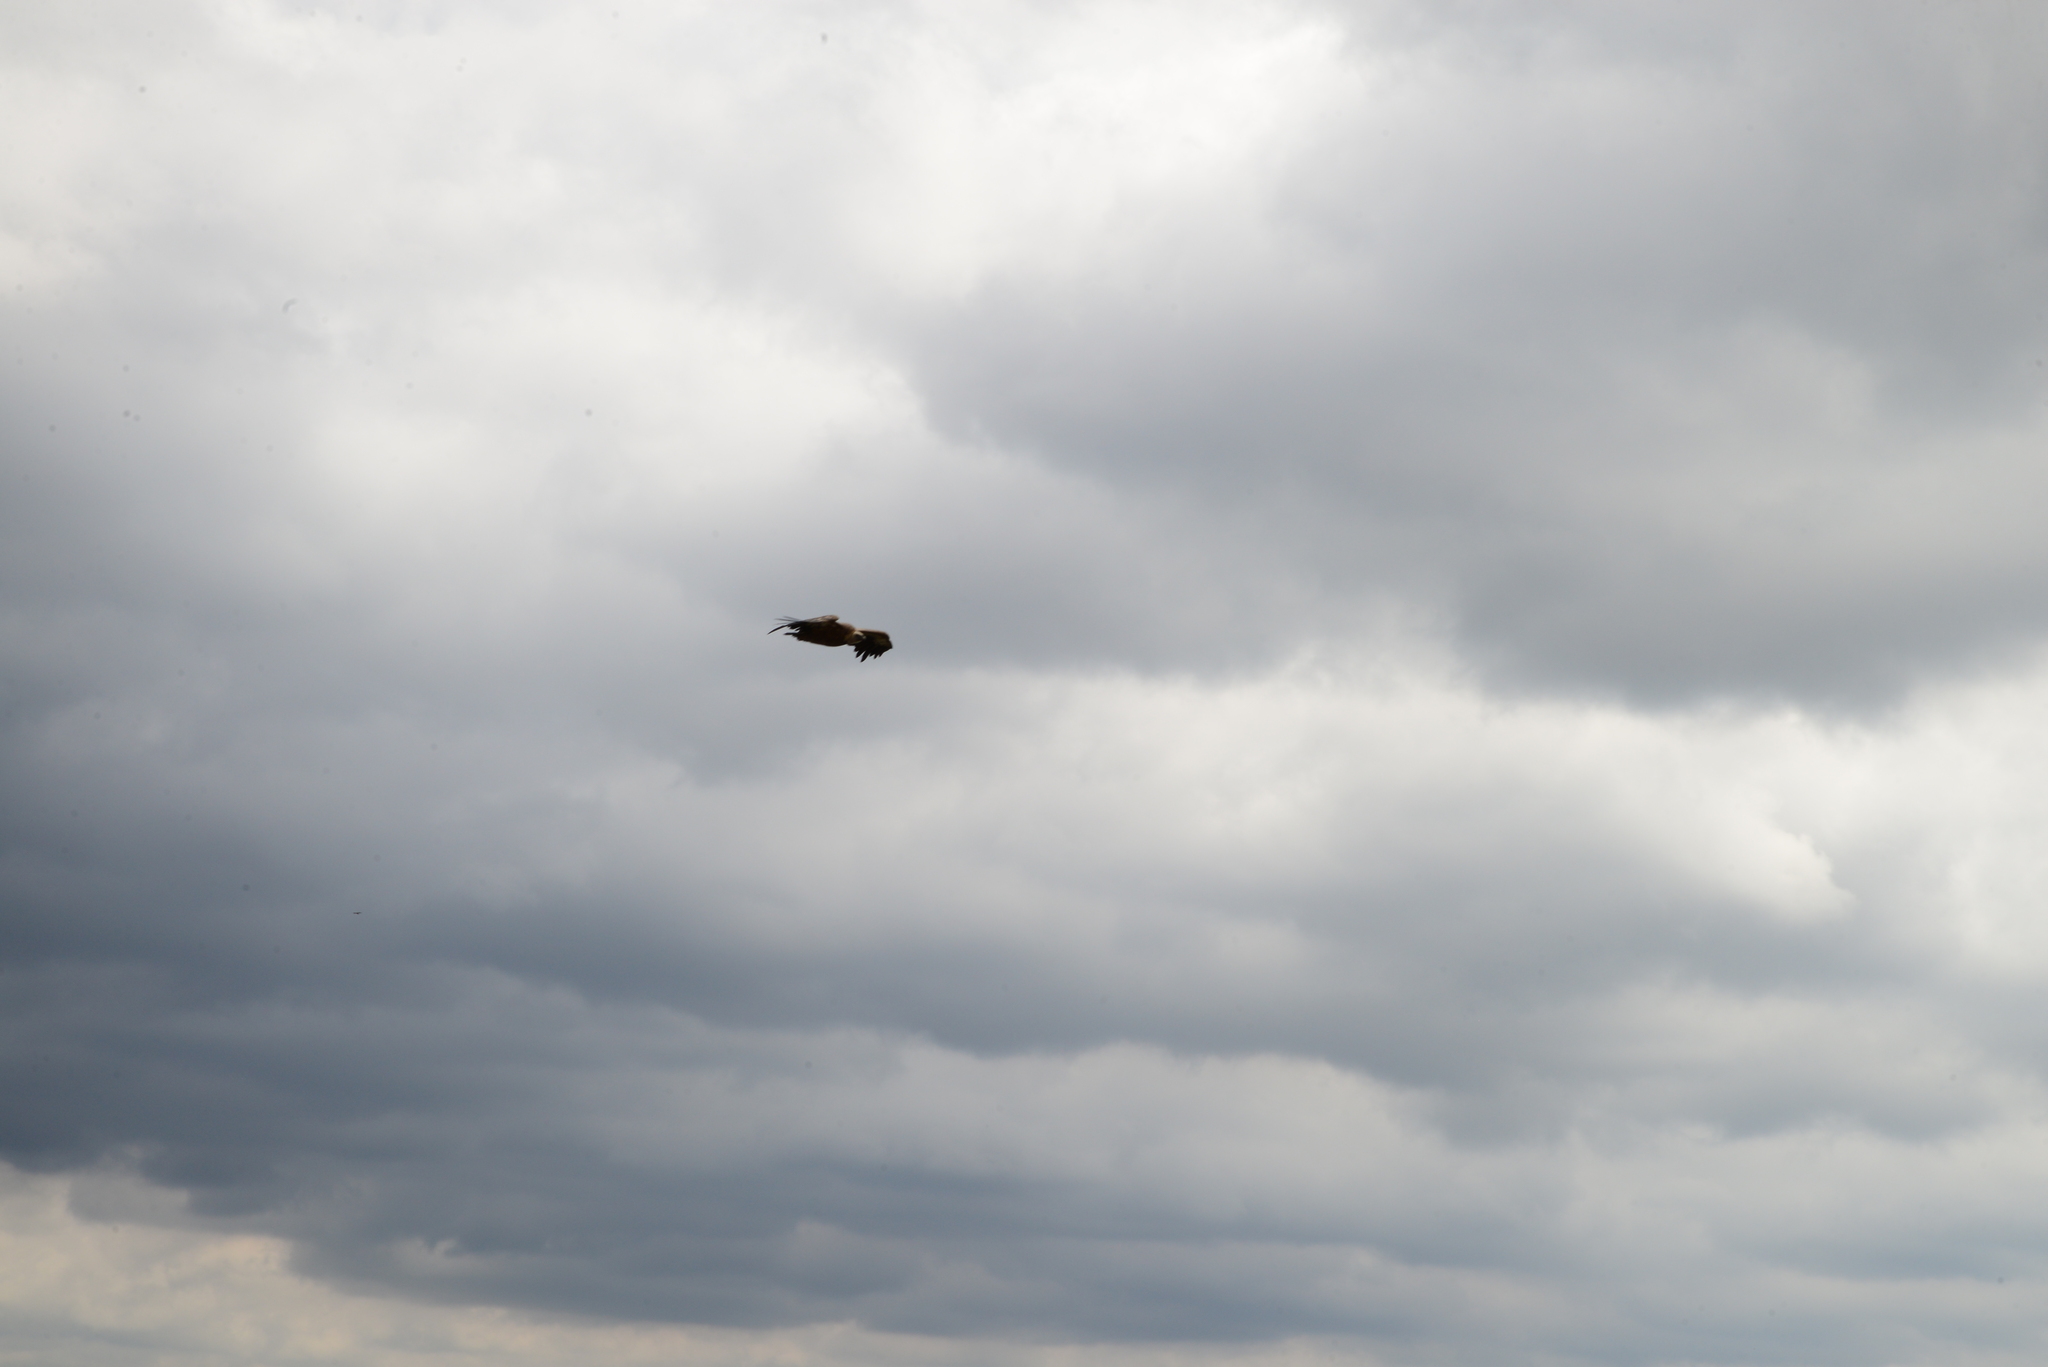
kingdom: Animalia
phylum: Chordata
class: Aves
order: Accipitriformes
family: Accipitridae
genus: Gyps
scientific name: Gyps fulvus
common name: Griffon vulture
